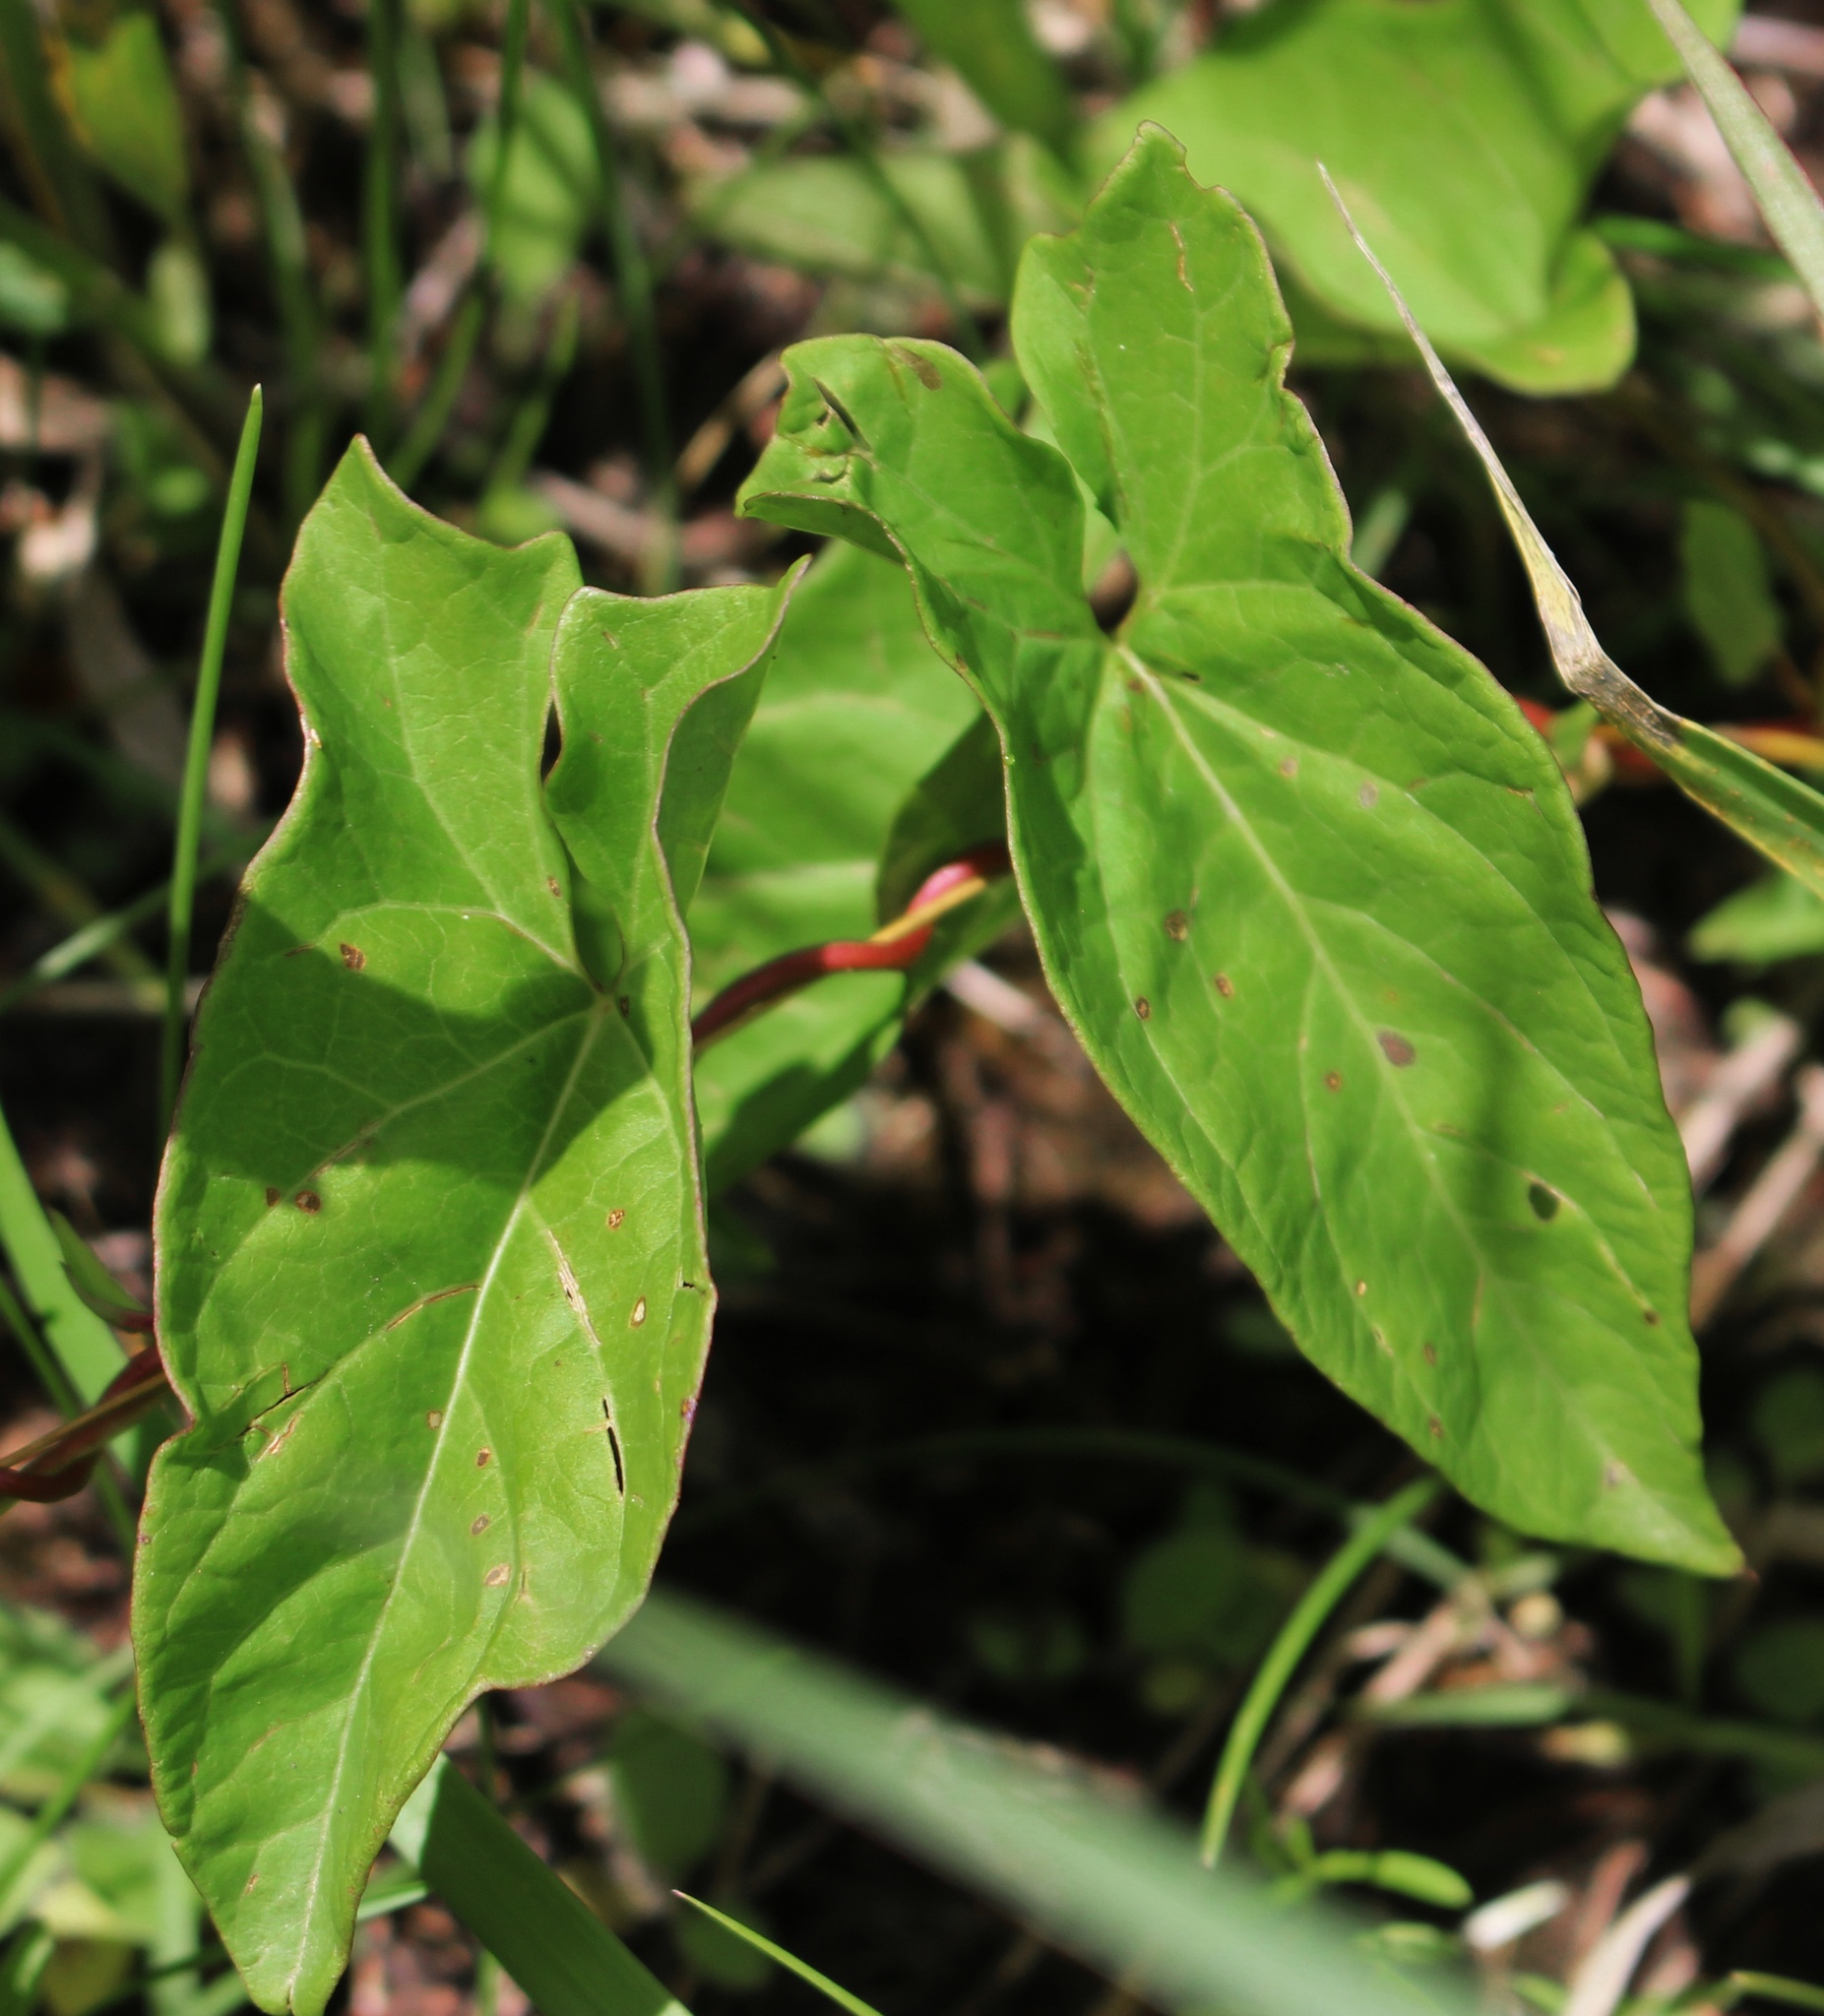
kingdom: Plantae
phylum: Tracheophyta
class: Magnoliopsida
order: Solanales
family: Convolvulaceae
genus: Calystegia
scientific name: Calystegia sepium
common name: Hedge bindweed
